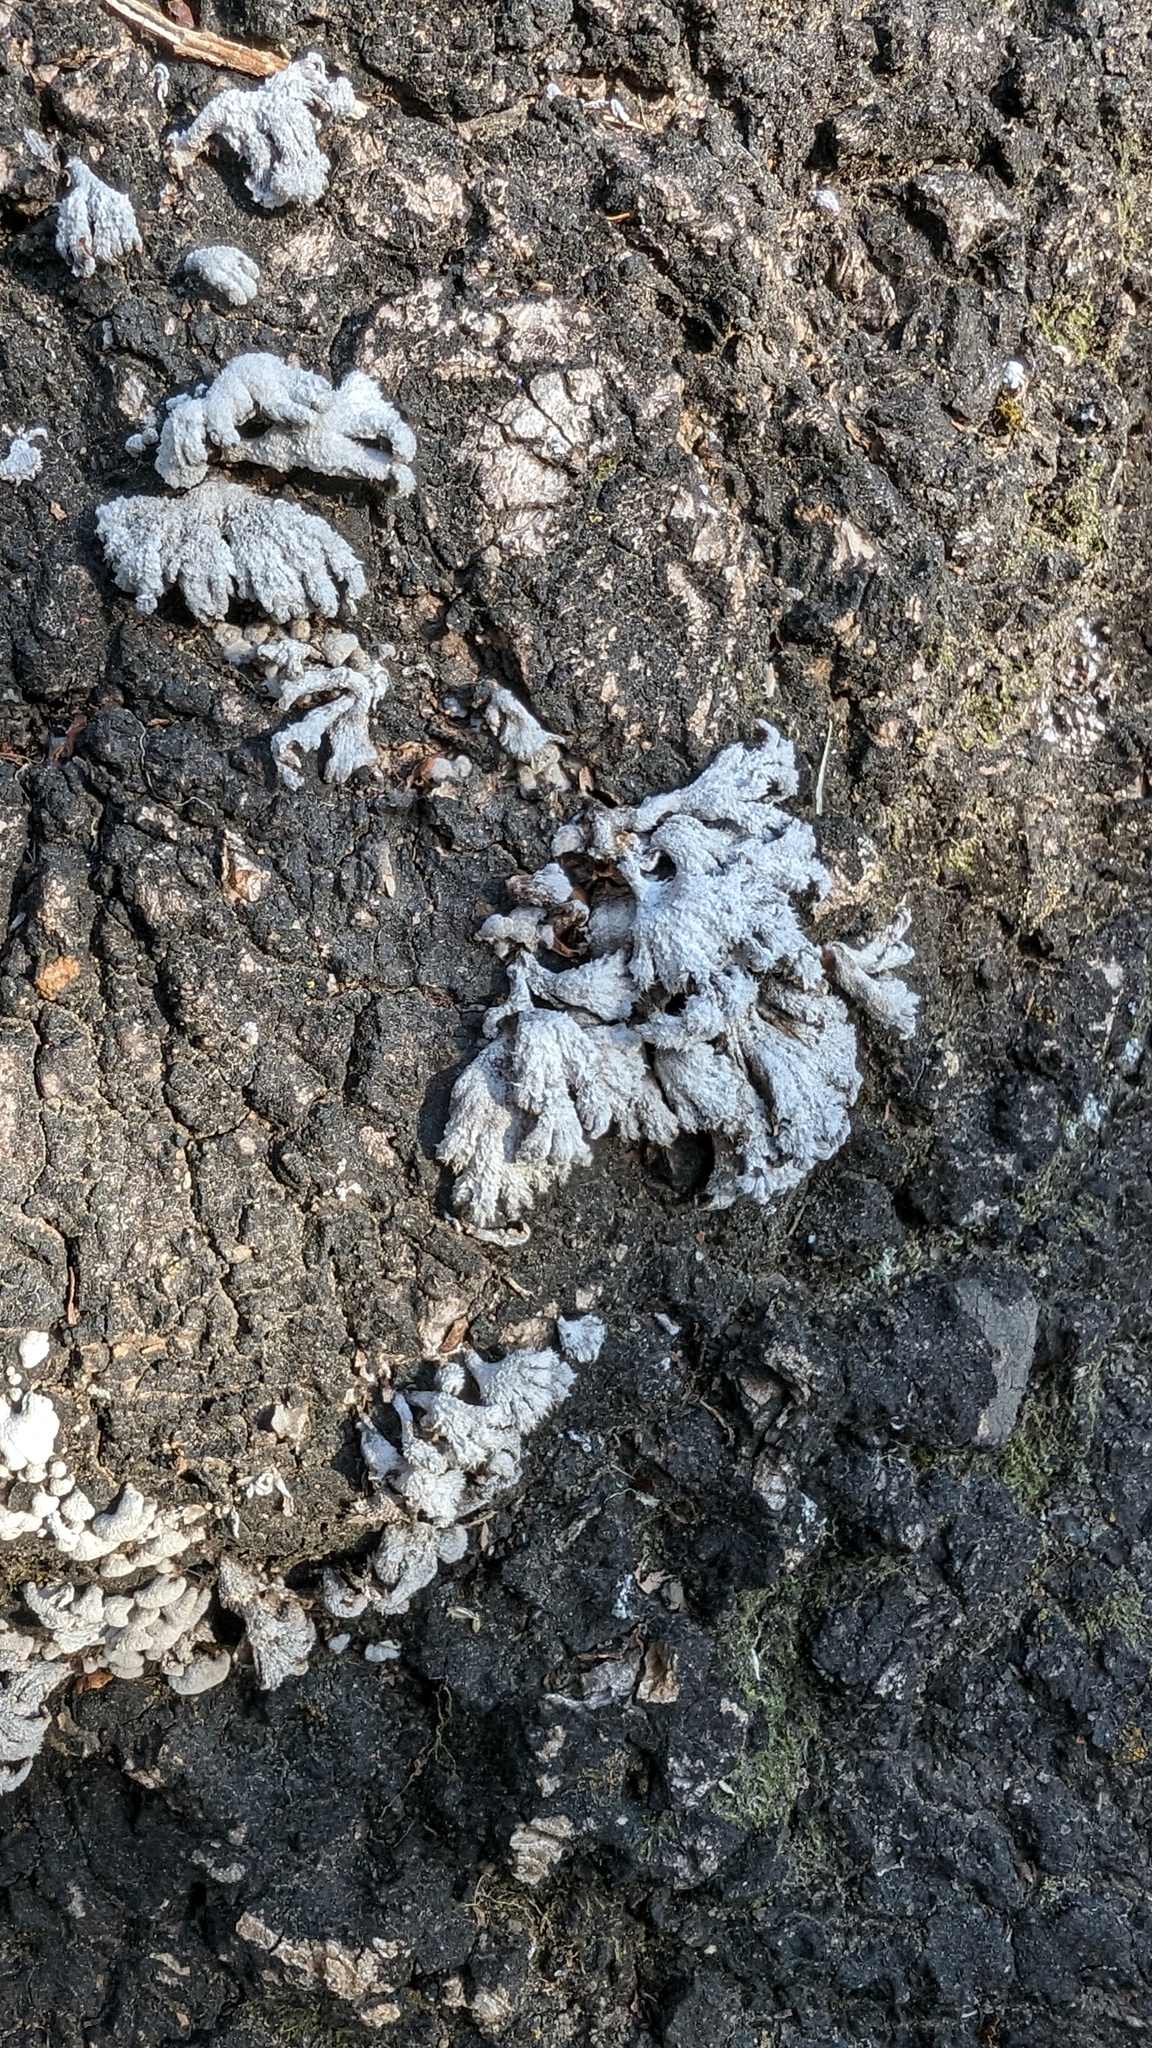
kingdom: Fungi
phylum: Basidiomycota
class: Agaricomycetes
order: Agaricales
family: Schizophyllaceae
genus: Schizophyllum
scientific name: Schizophyllum commune
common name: Common porecrust
